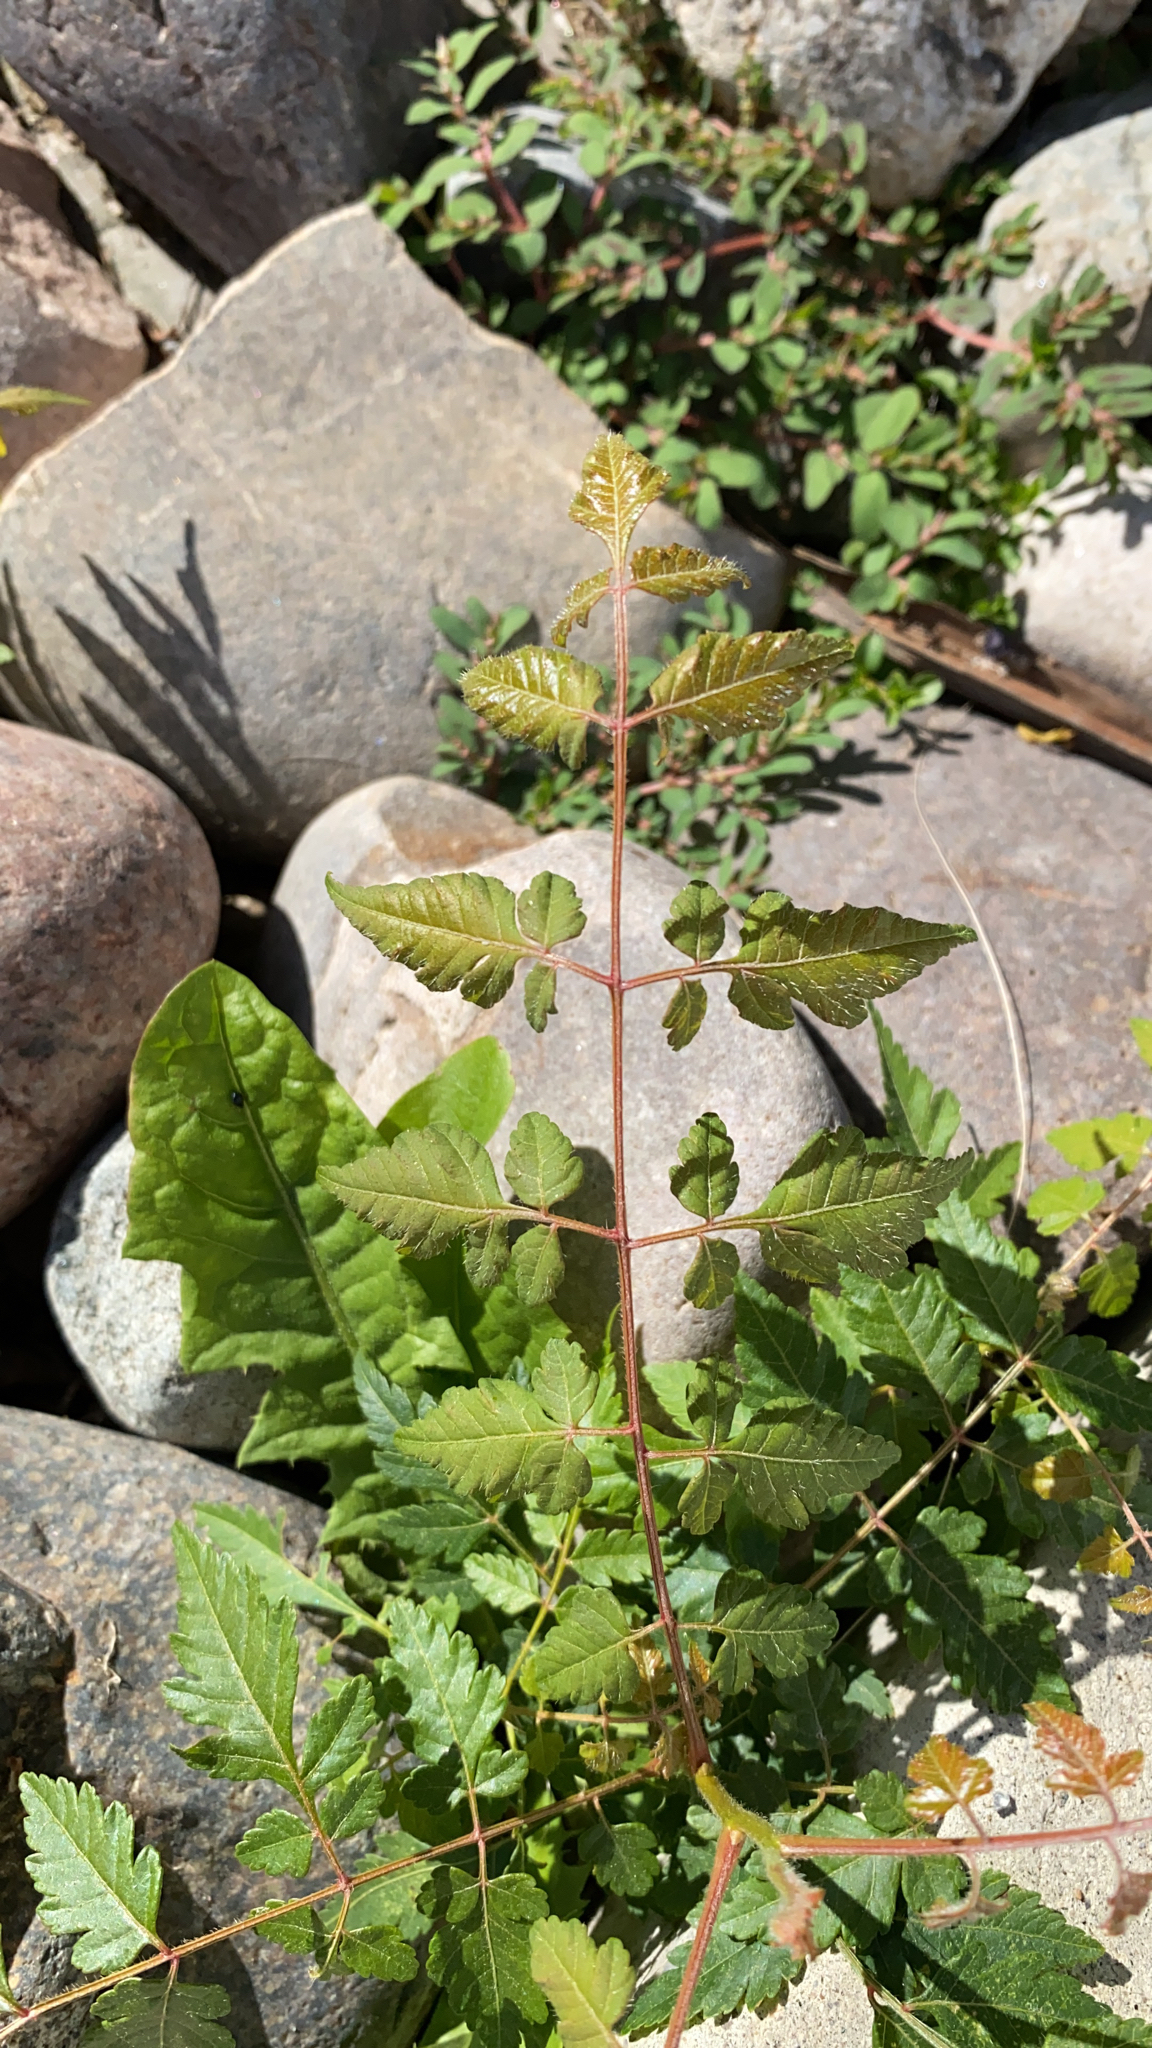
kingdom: Plantae
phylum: Tracheophyta
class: Magnoliopsida
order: Sapindales
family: Sapindaceae
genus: Koelreuteria
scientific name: Koelreuteria paniculata
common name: Pride-of-india
